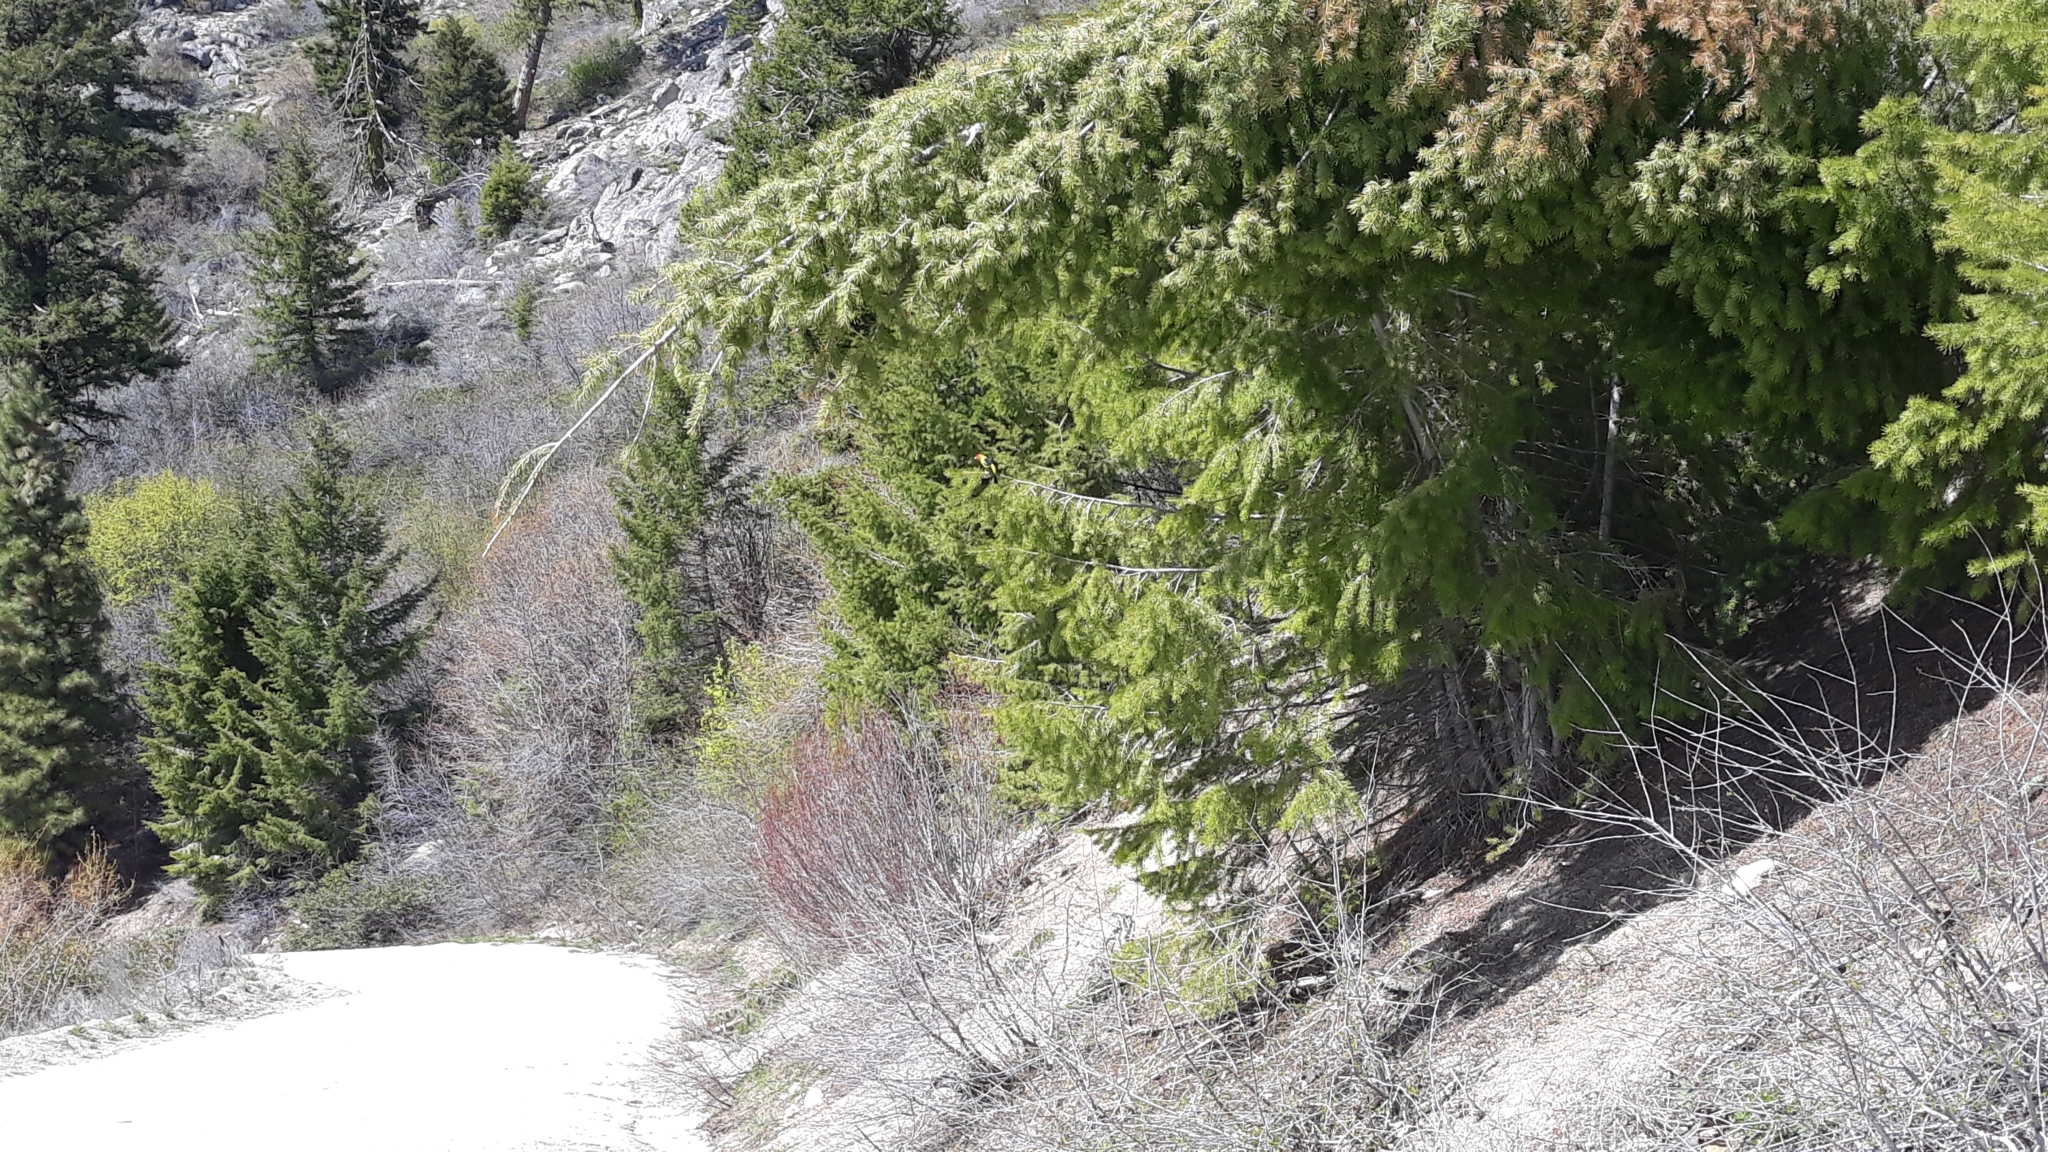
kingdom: Animalia
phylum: Chordata
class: Aves
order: Passeriformes
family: Cardinalidae
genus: Piranga
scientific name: Piranga ludoviciana
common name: Western tanager
